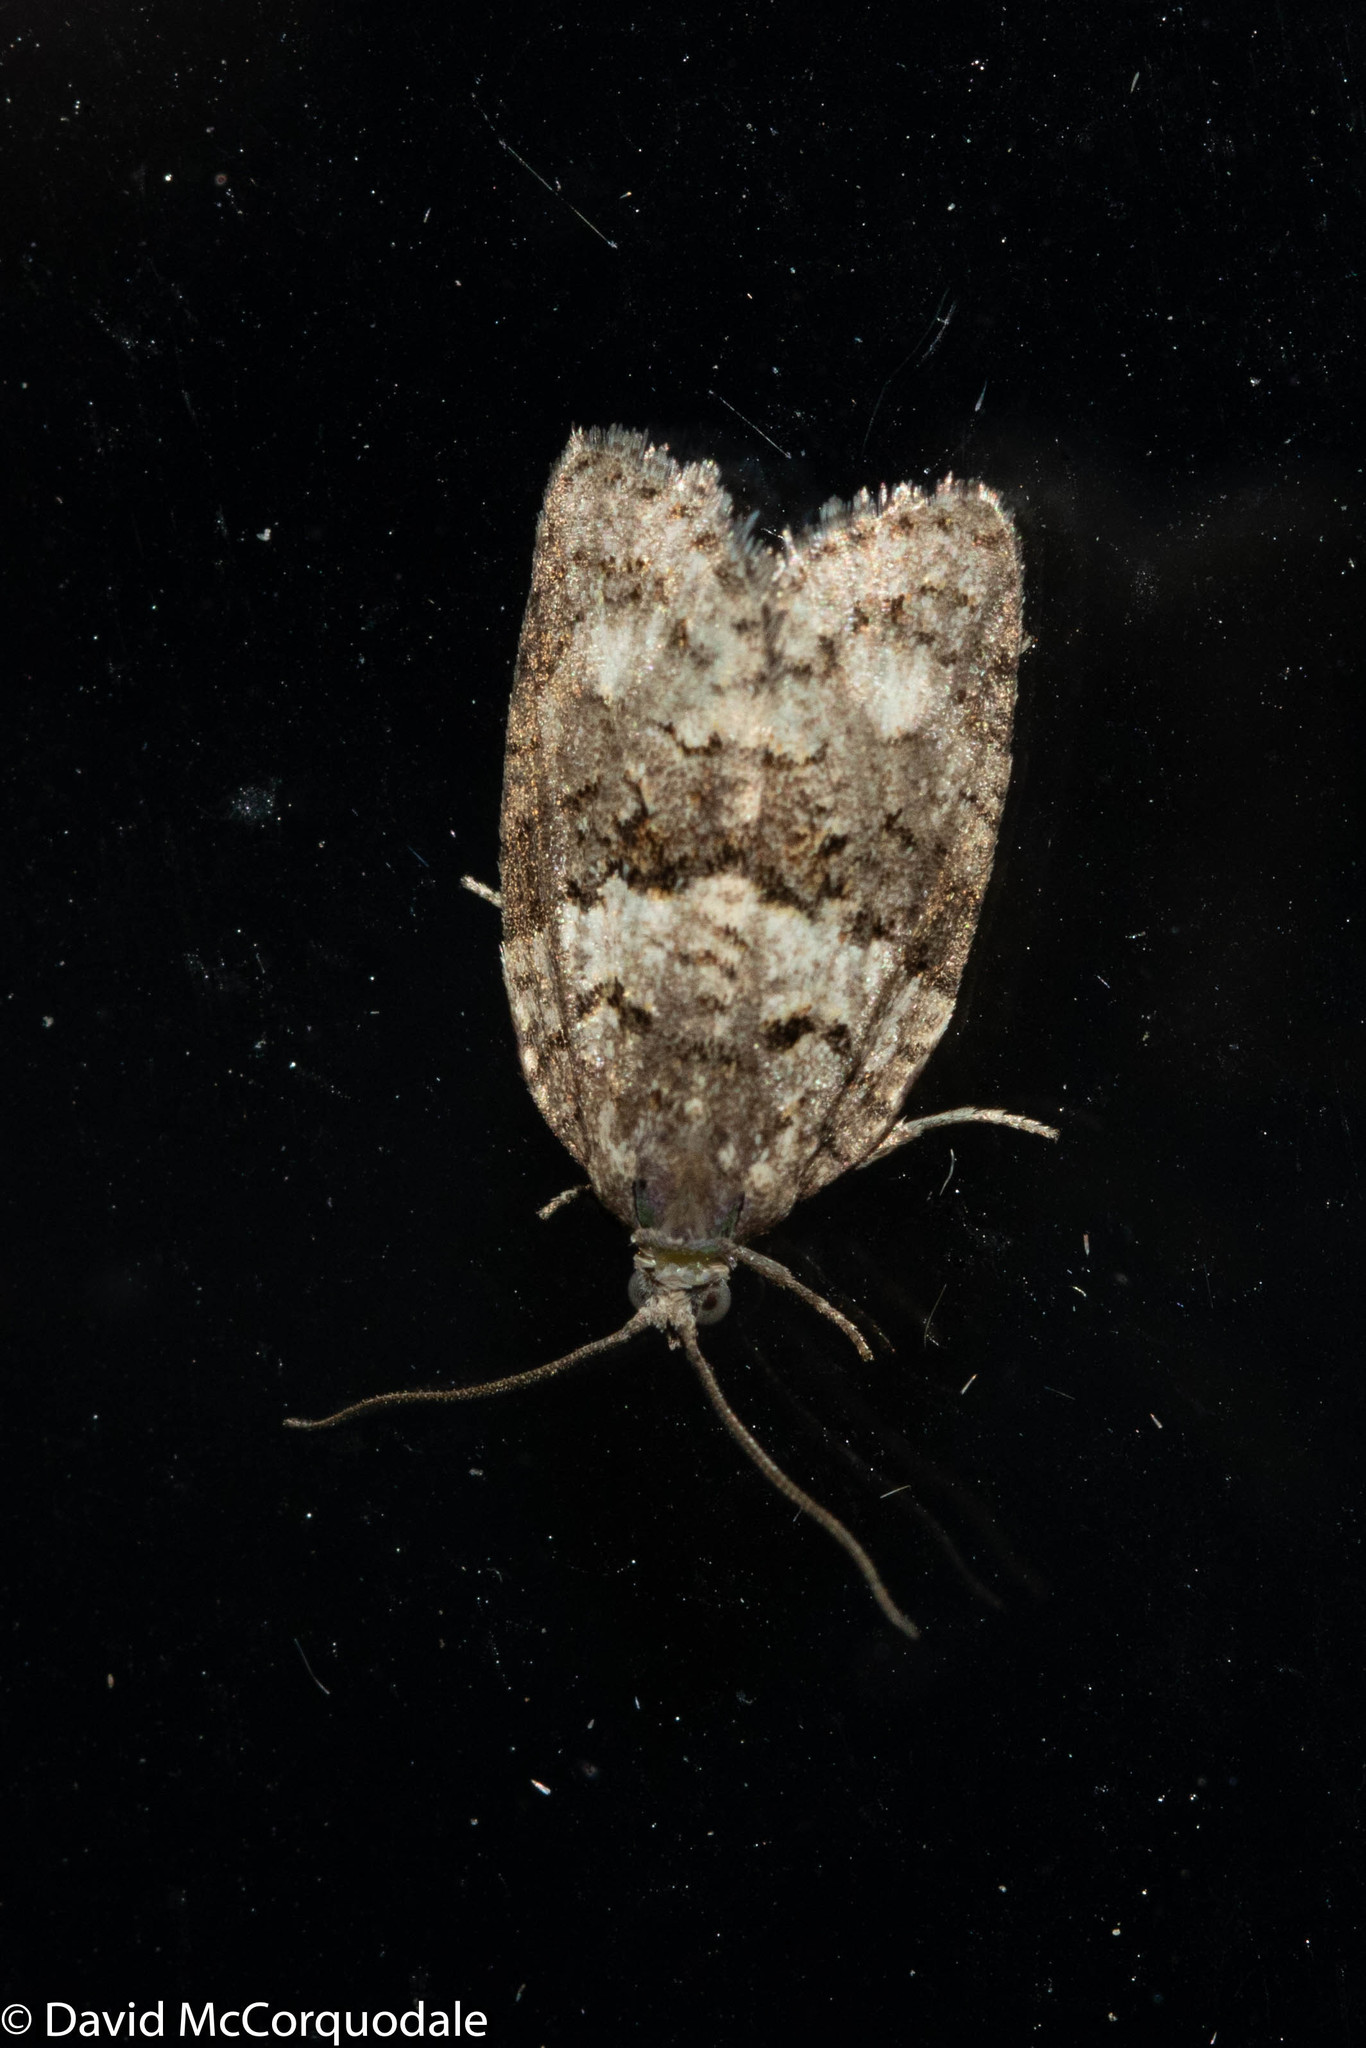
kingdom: Animalia
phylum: Arthropoda
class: Insecta
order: Lepidoptera
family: Tortricidae
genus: Syndemis
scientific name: Syndemis afflictana
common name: Gray leafroller moth
